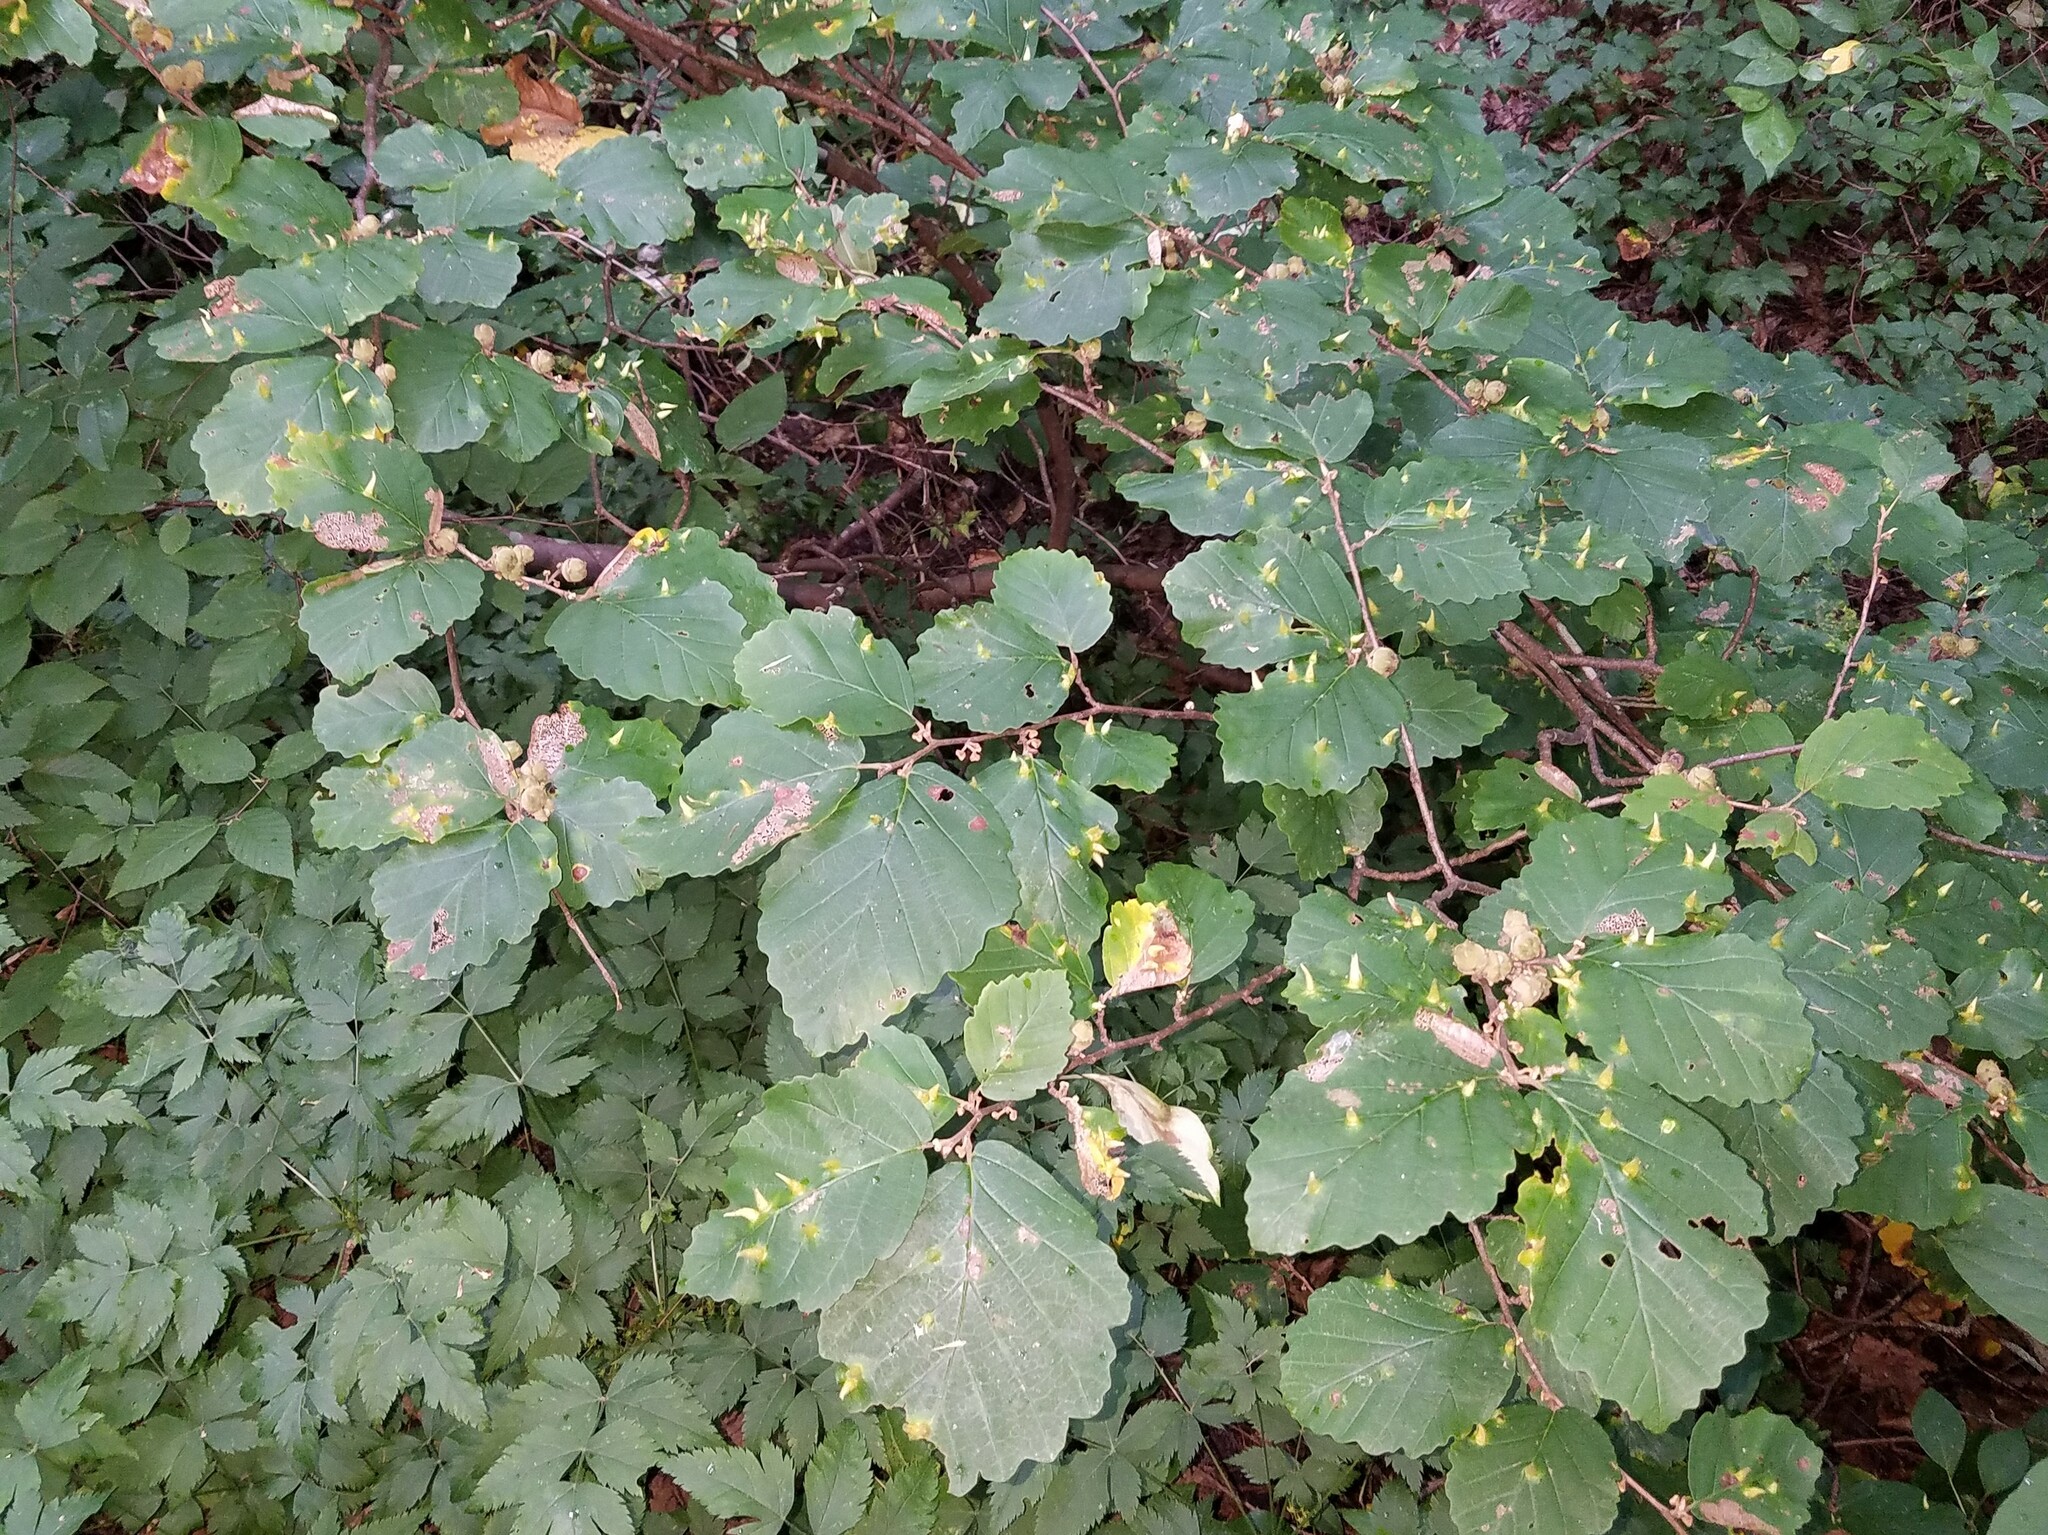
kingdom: Plantae
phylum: Tracheophyta
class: Magnoliopsida
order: Saxifragales
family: Hamamelidaceae
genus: Hamamelis
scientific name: Hamamelis virginiana
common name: Witch-hazel
